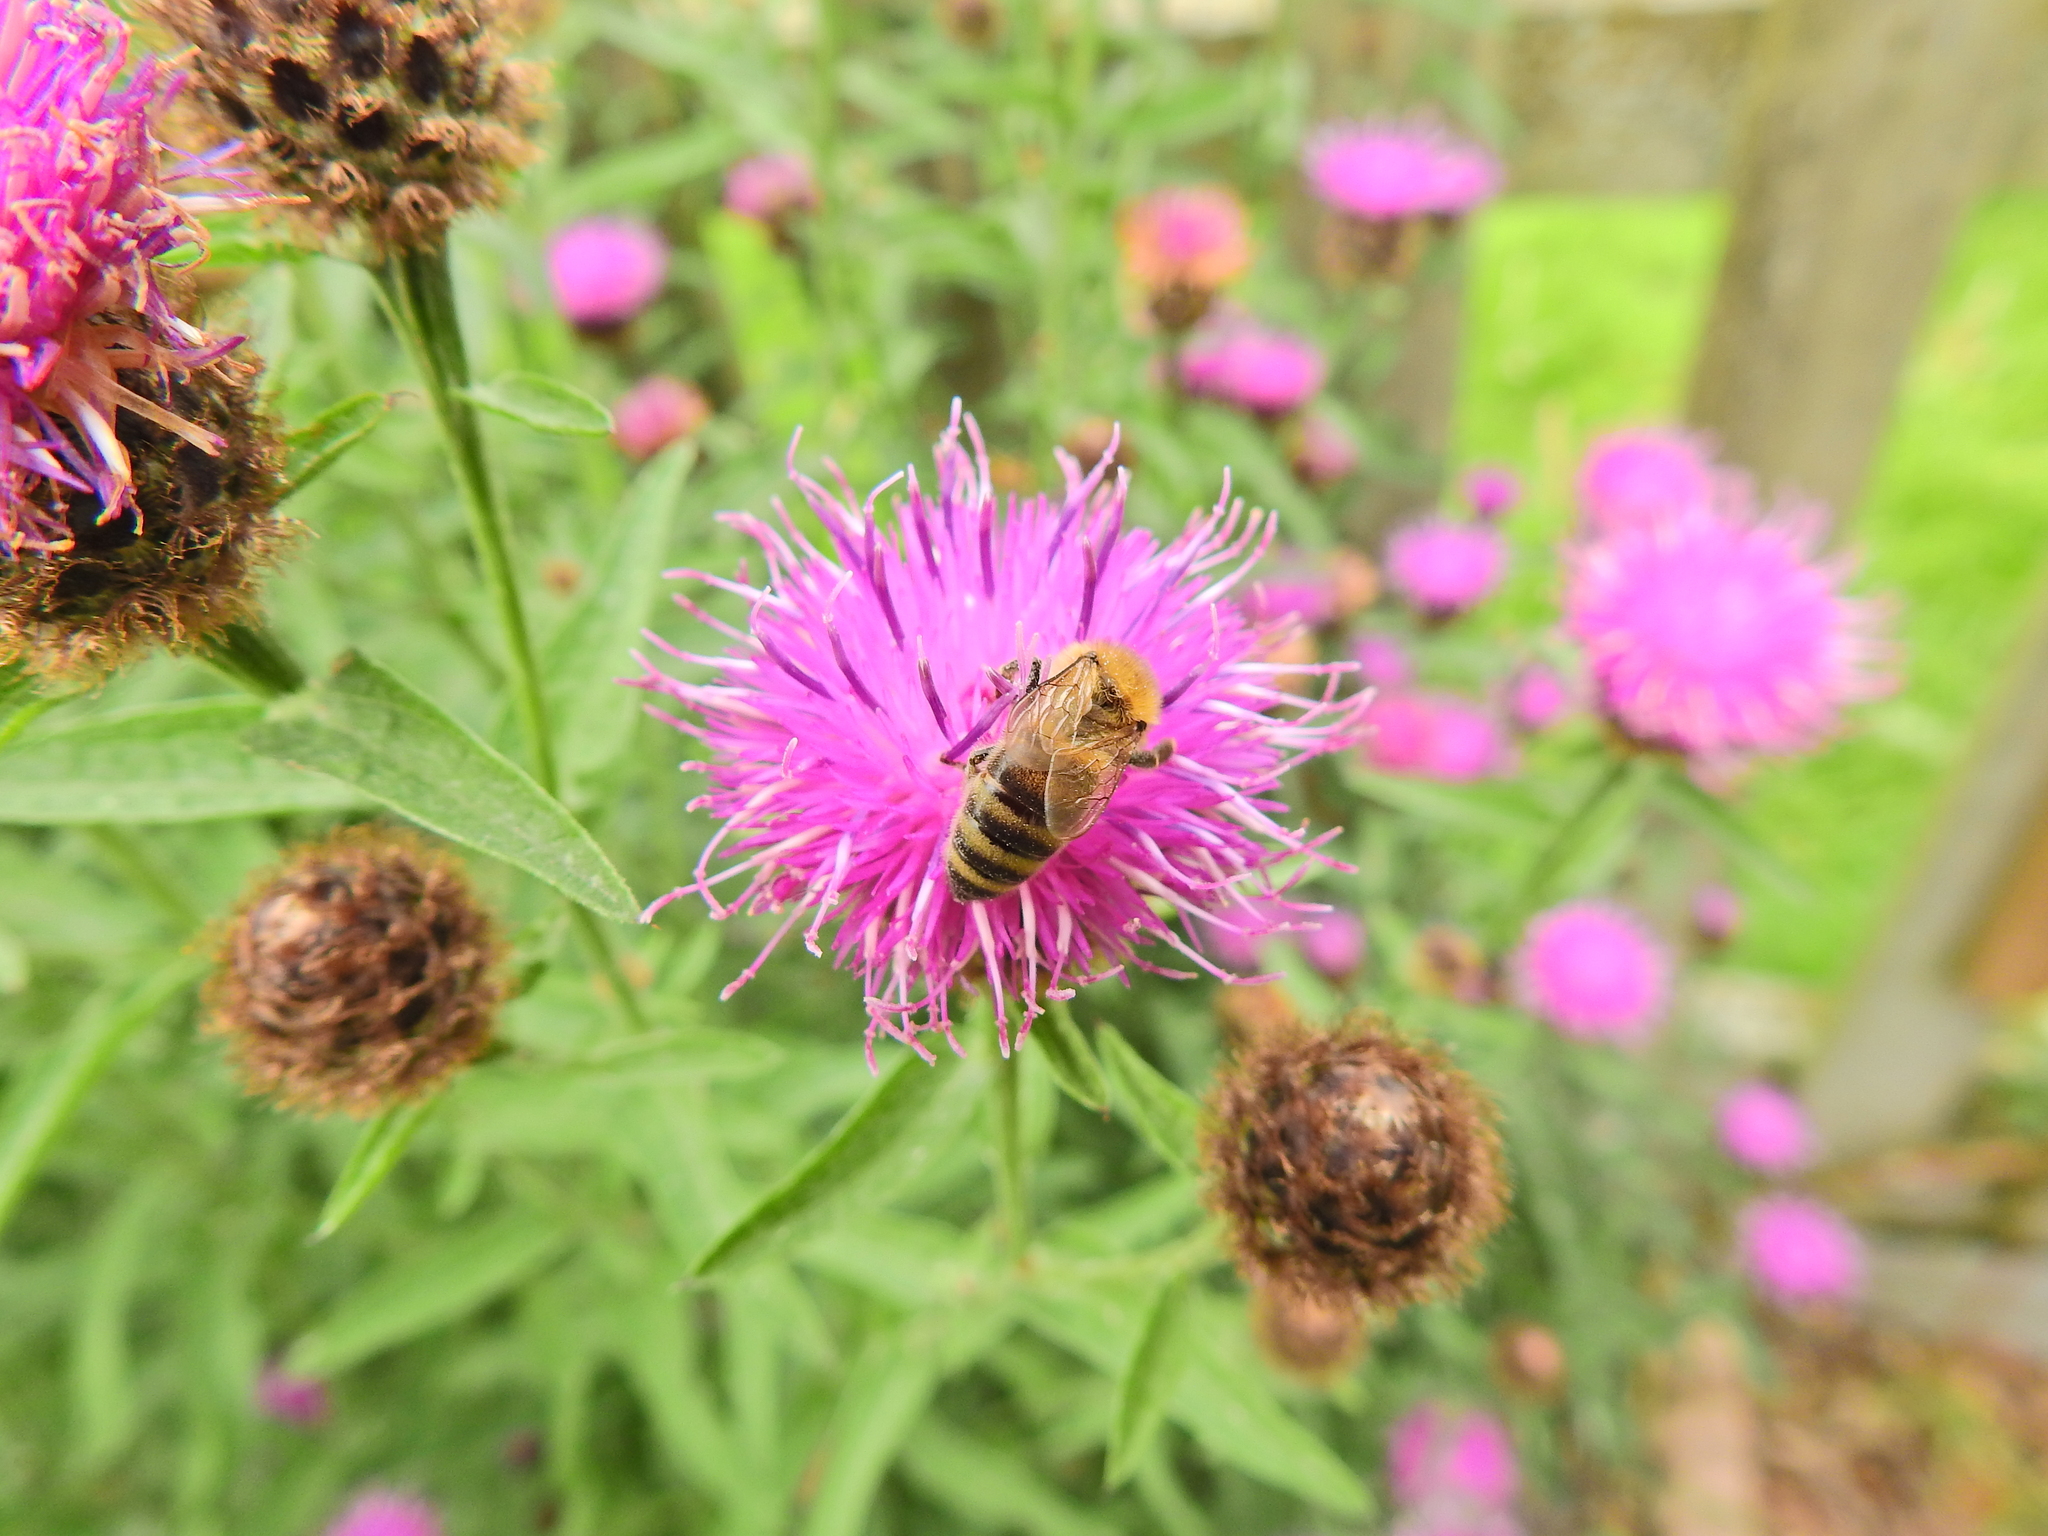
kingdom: Animalia
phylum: Arthropoda
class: Insecta
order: Hymenoptera
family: Apidae
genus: Apis
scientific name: Apis mellifera
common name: Honey bee
